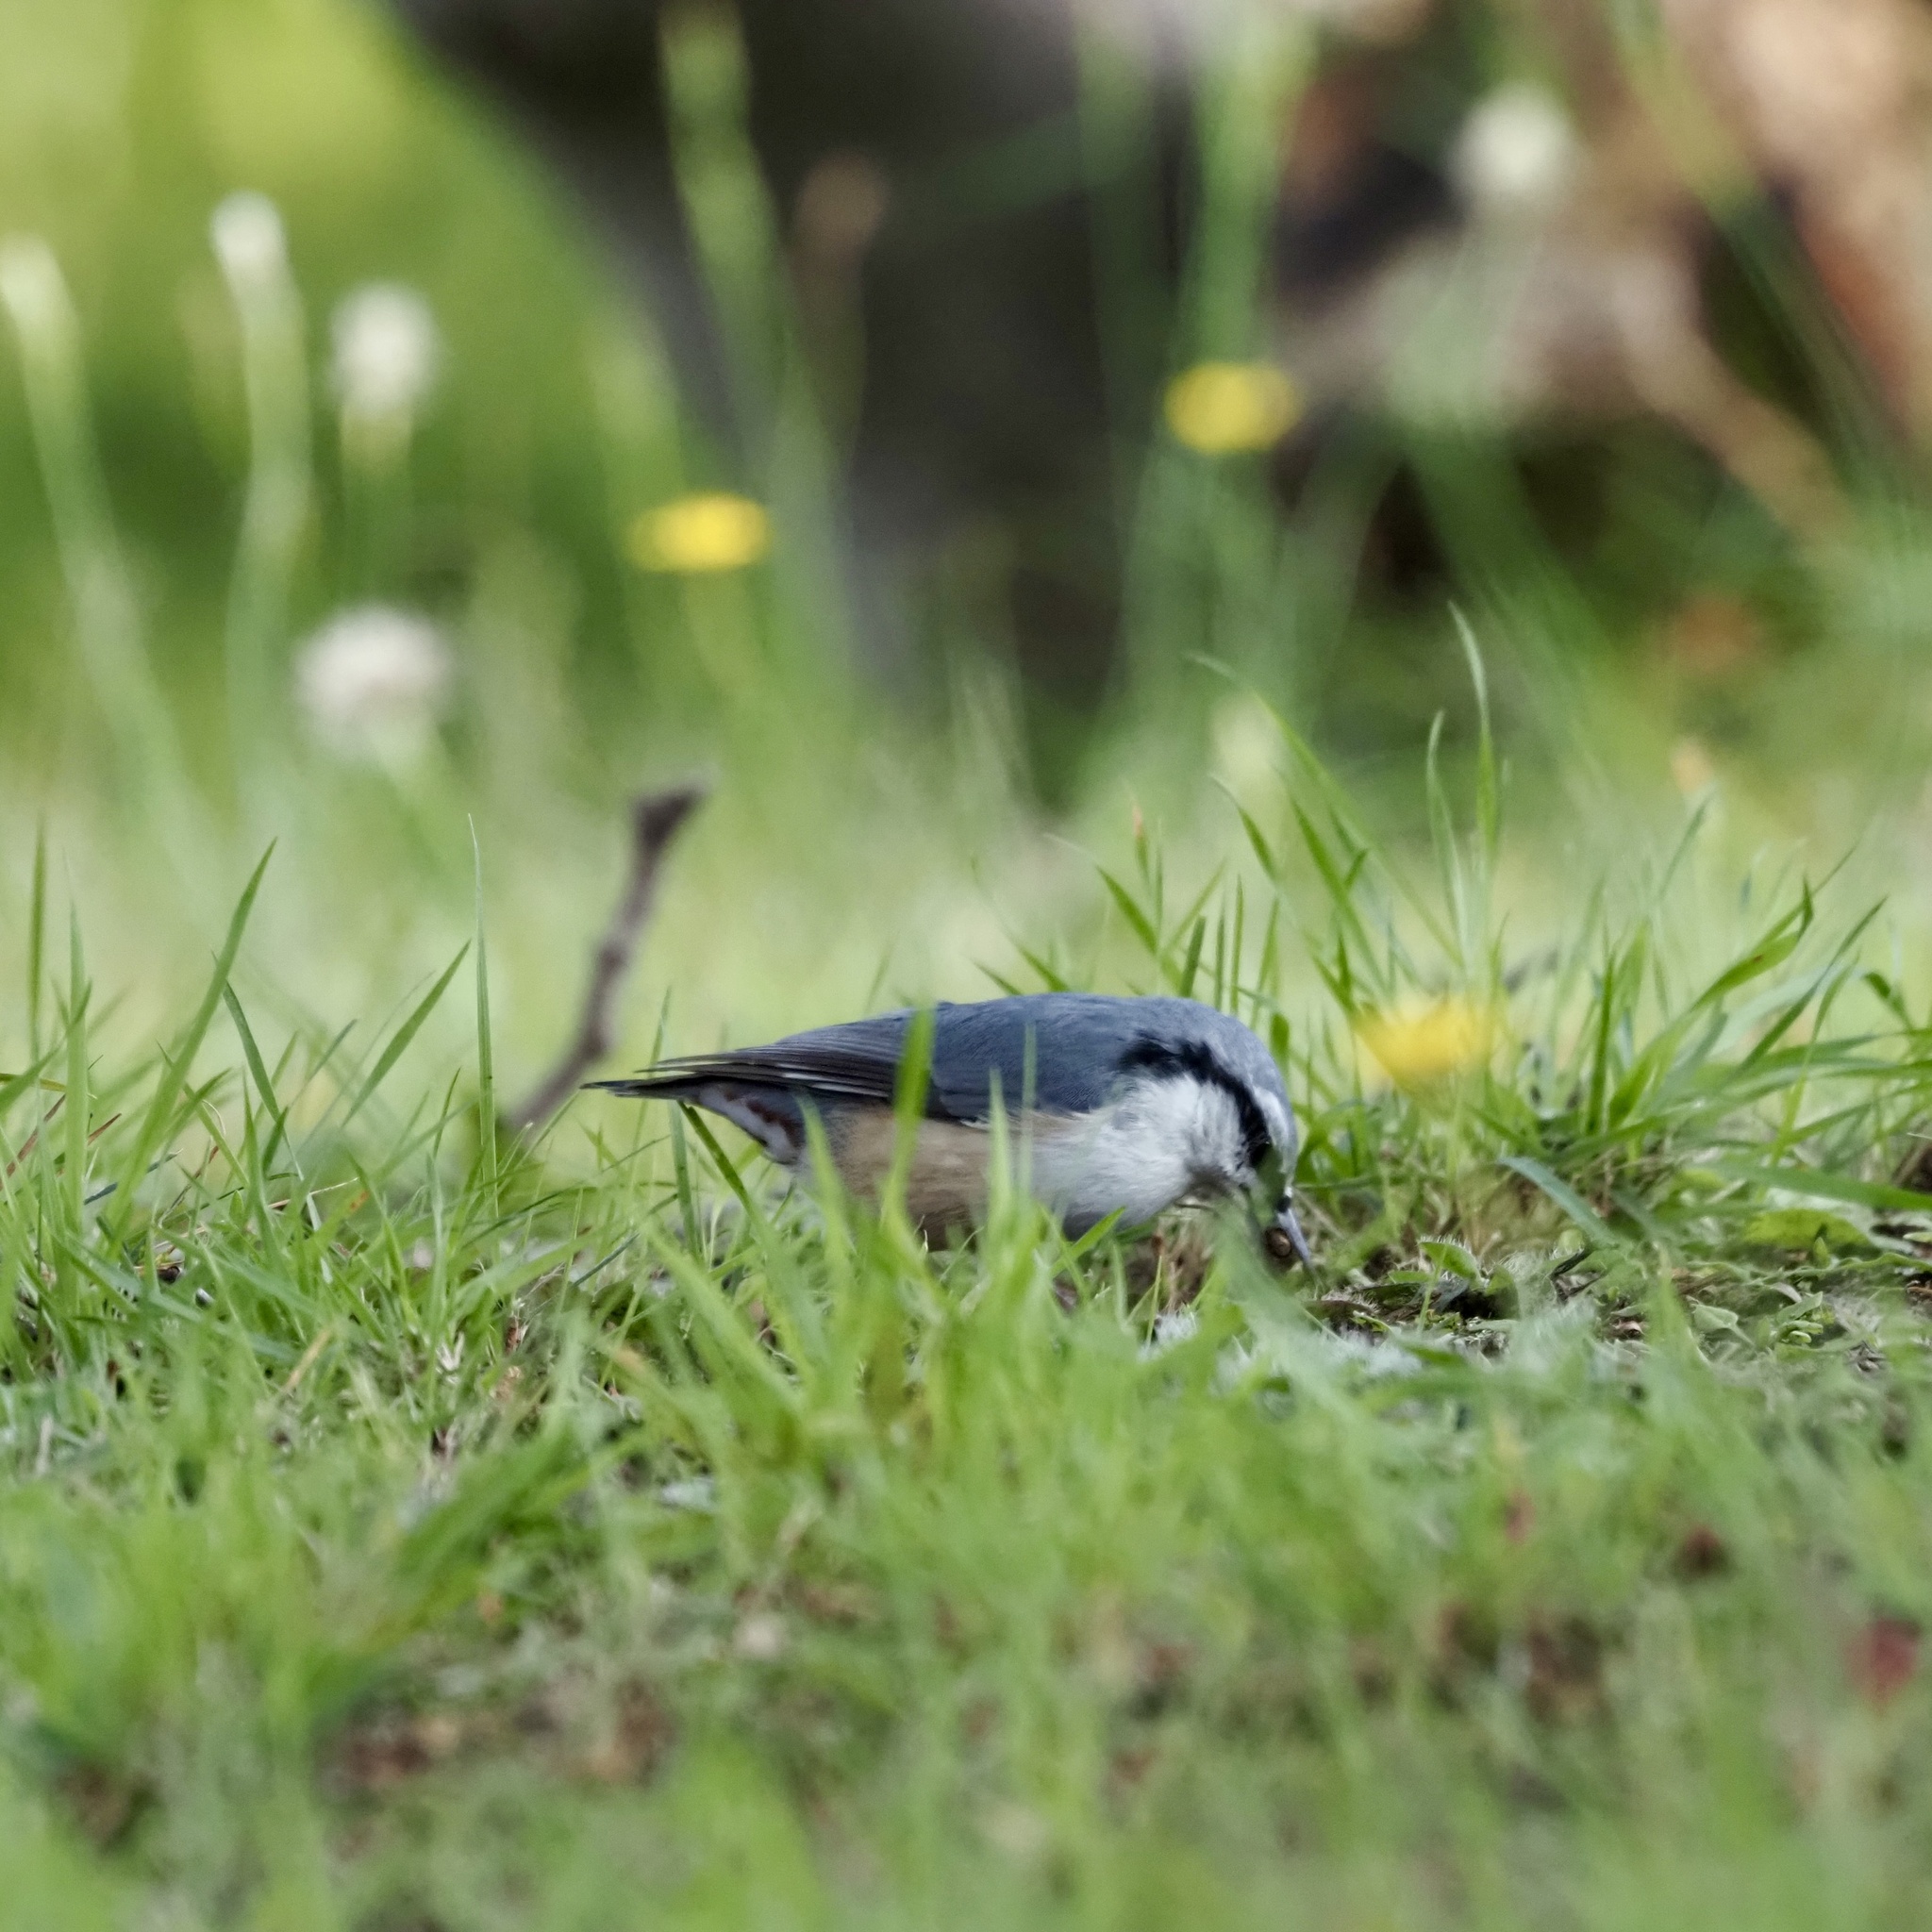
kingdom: Animalia
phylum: Chordata
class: Aves
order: Passeriformes
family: Sittidae
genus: Sitta
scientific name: Sitta europaea
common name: Eurasian nuthatch
